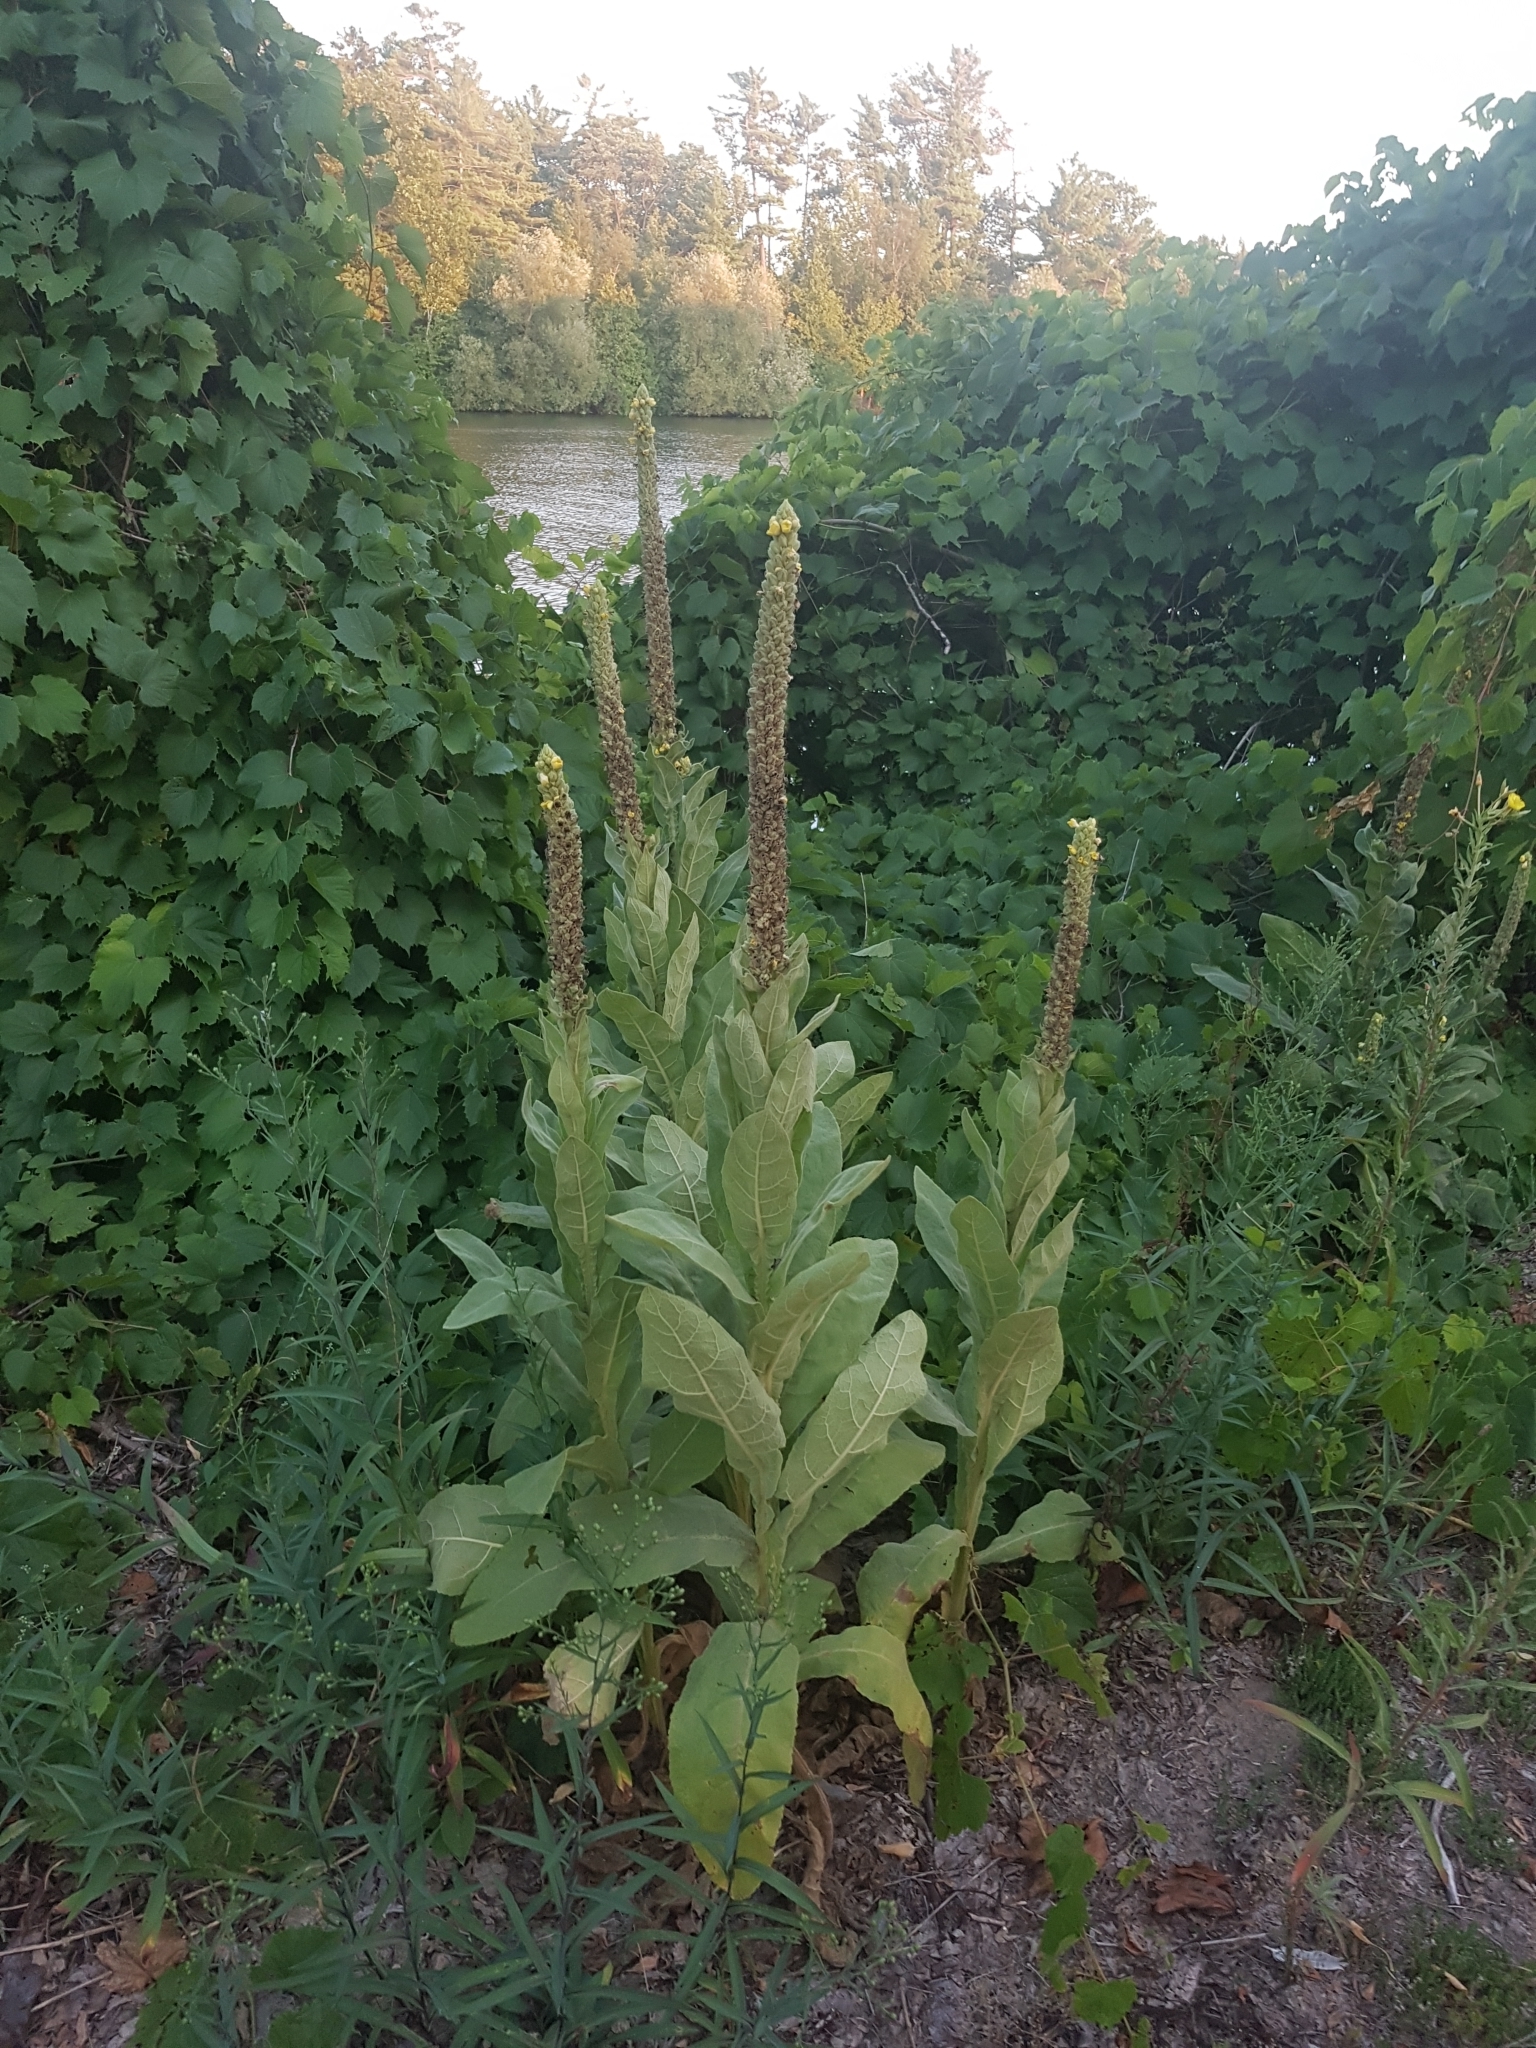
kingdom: Plantae
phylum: Tracheophyta
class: Magnoliopsida
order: Lamiales
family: Scrophulariaceae
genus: Verbascum
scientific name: Verbascum thapsus
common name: Common mullein
